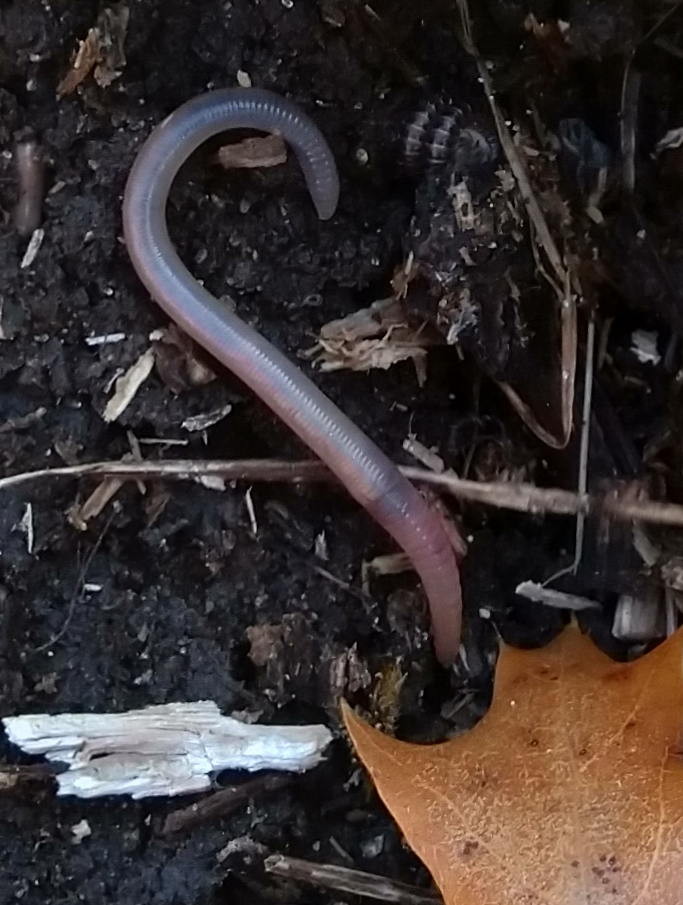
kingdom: Animalia
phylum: Annelida
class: Clitellata
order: Crassiclitellata
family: Lumbricidae
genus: Lumbricus
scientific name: Lumbricus terrestris
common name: Common earthworm
